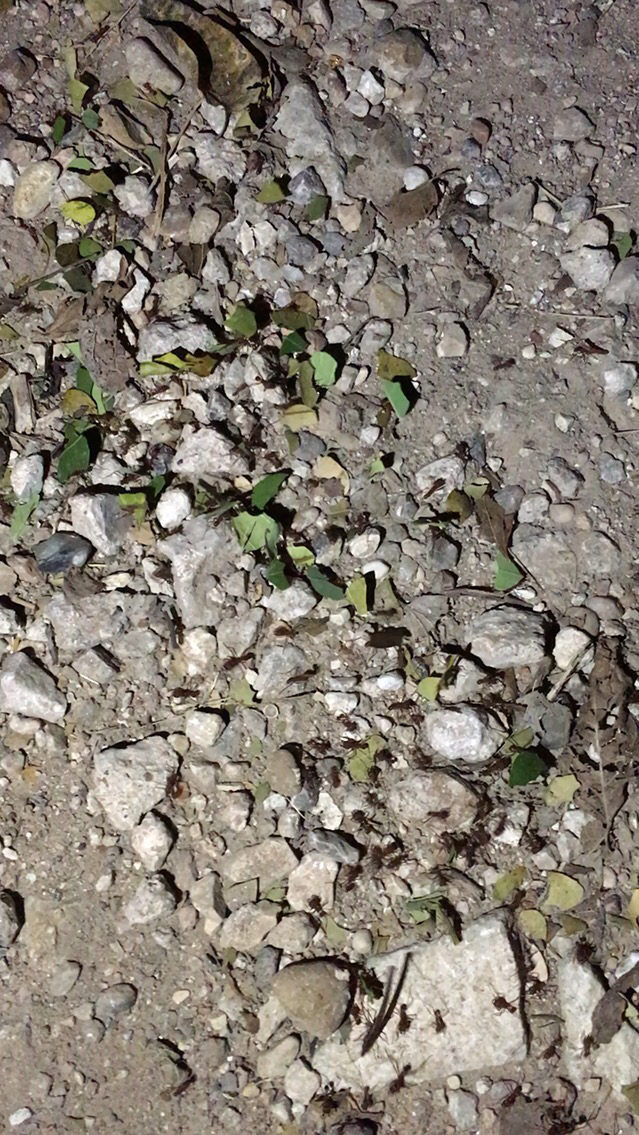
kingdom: Animalia
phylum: Arthropoda
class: Insecta
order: Hymenoptera
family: Formicidae
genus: Atta
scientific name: Atta texana
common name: Texas leafcutting ant
